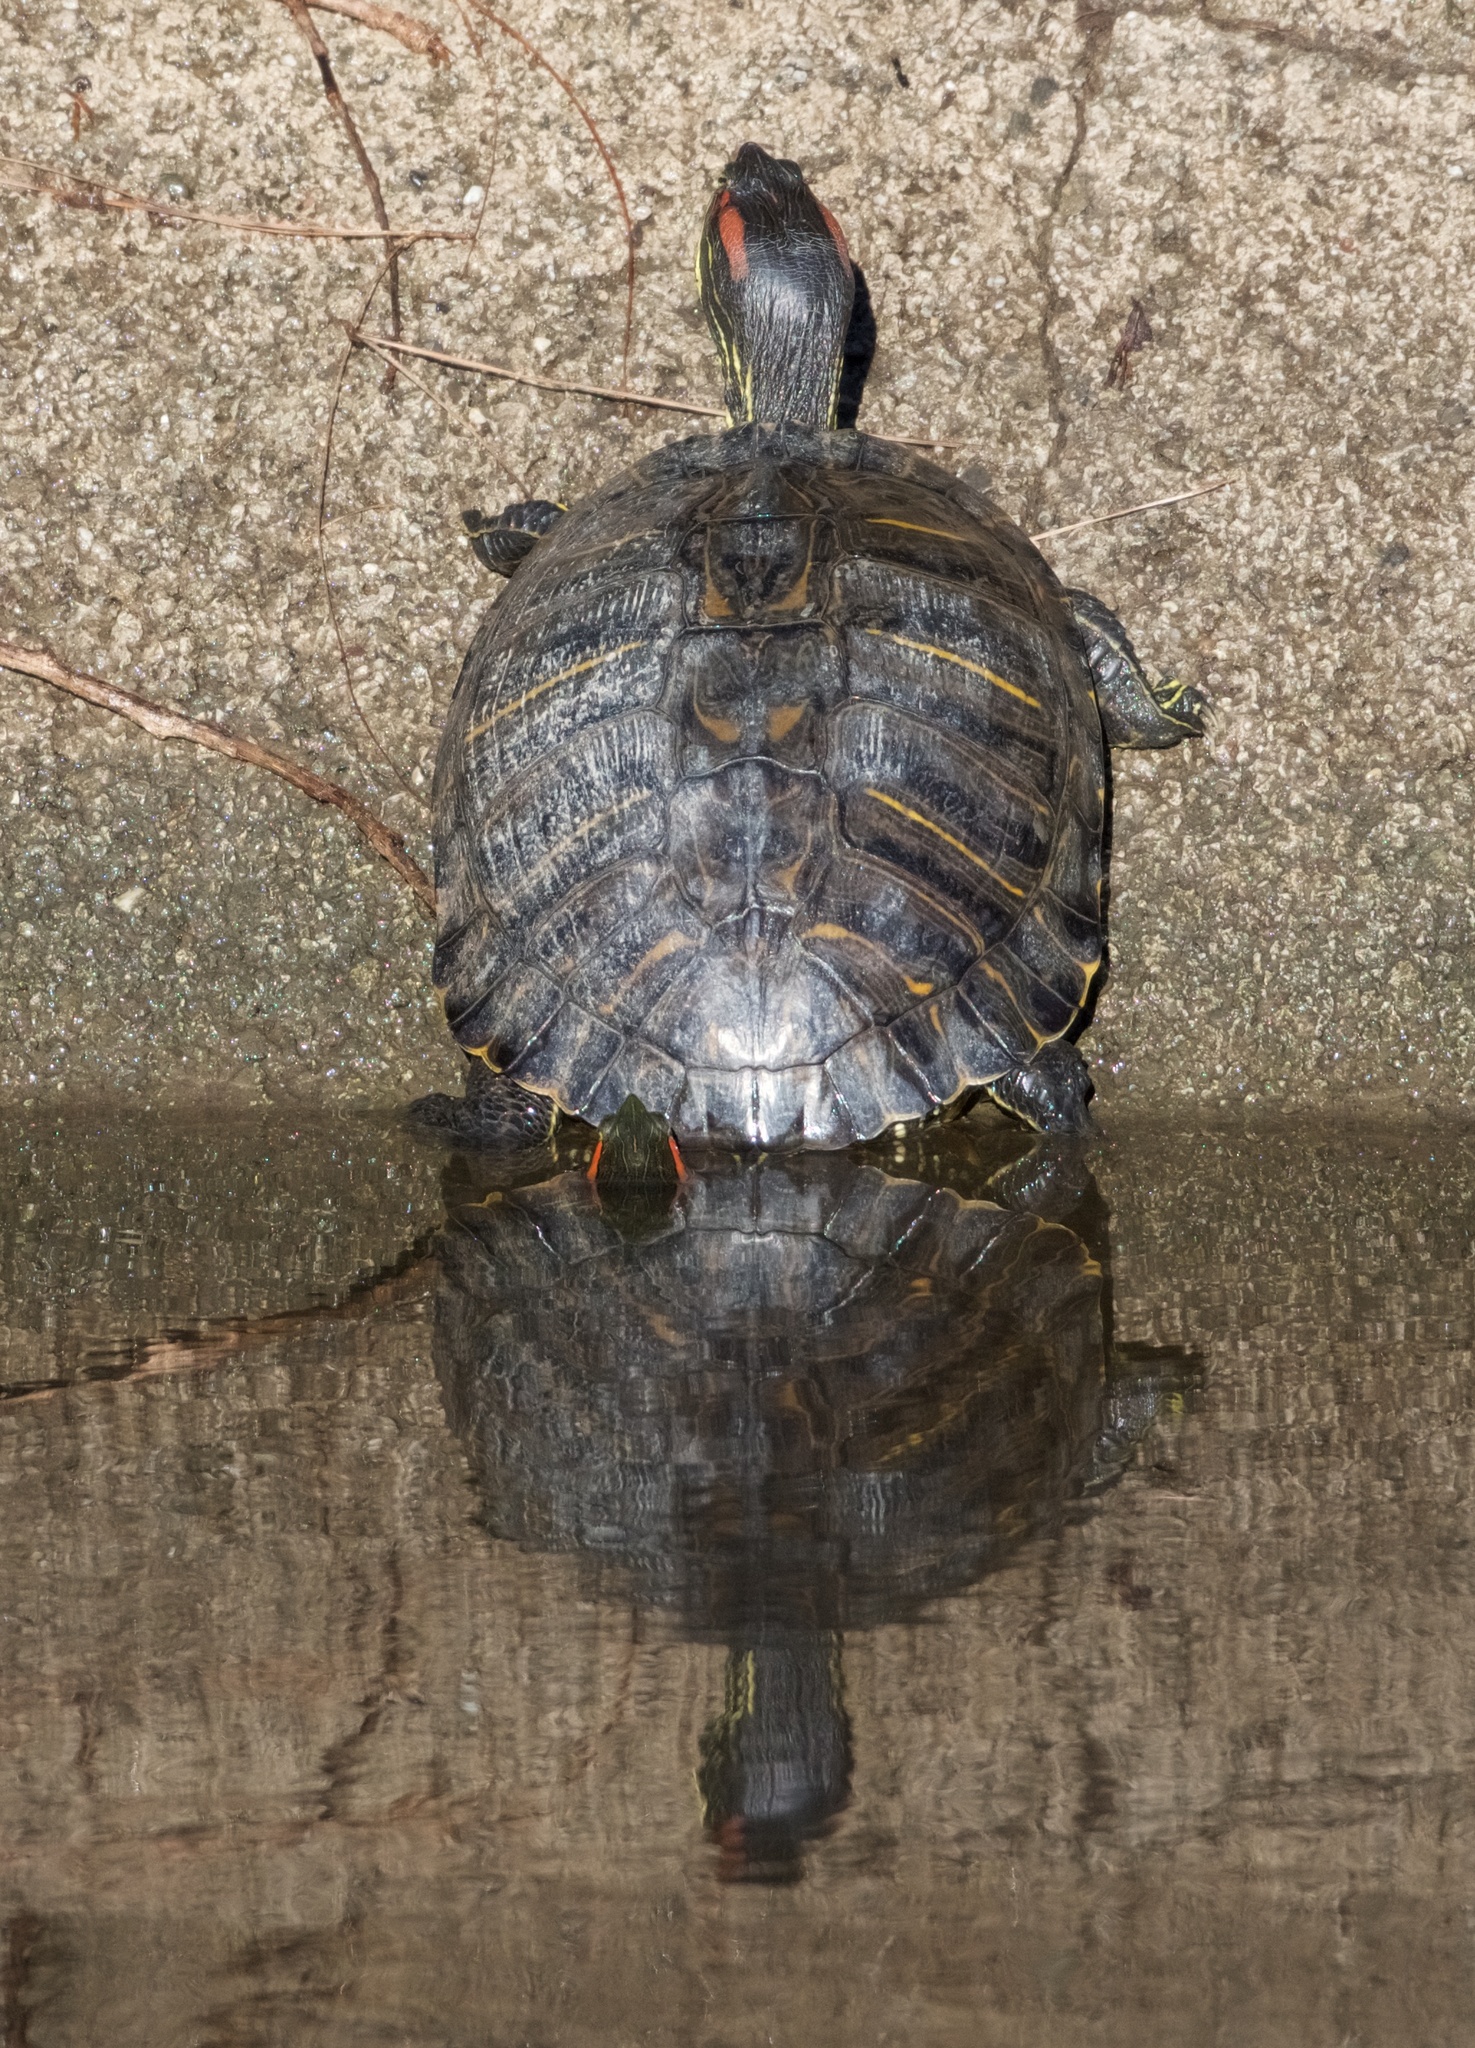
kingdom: Animalia
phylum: Chordata
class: Testudines
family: Emydidae
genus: Trachemys
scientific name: Trachemys scripta
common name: Slider
